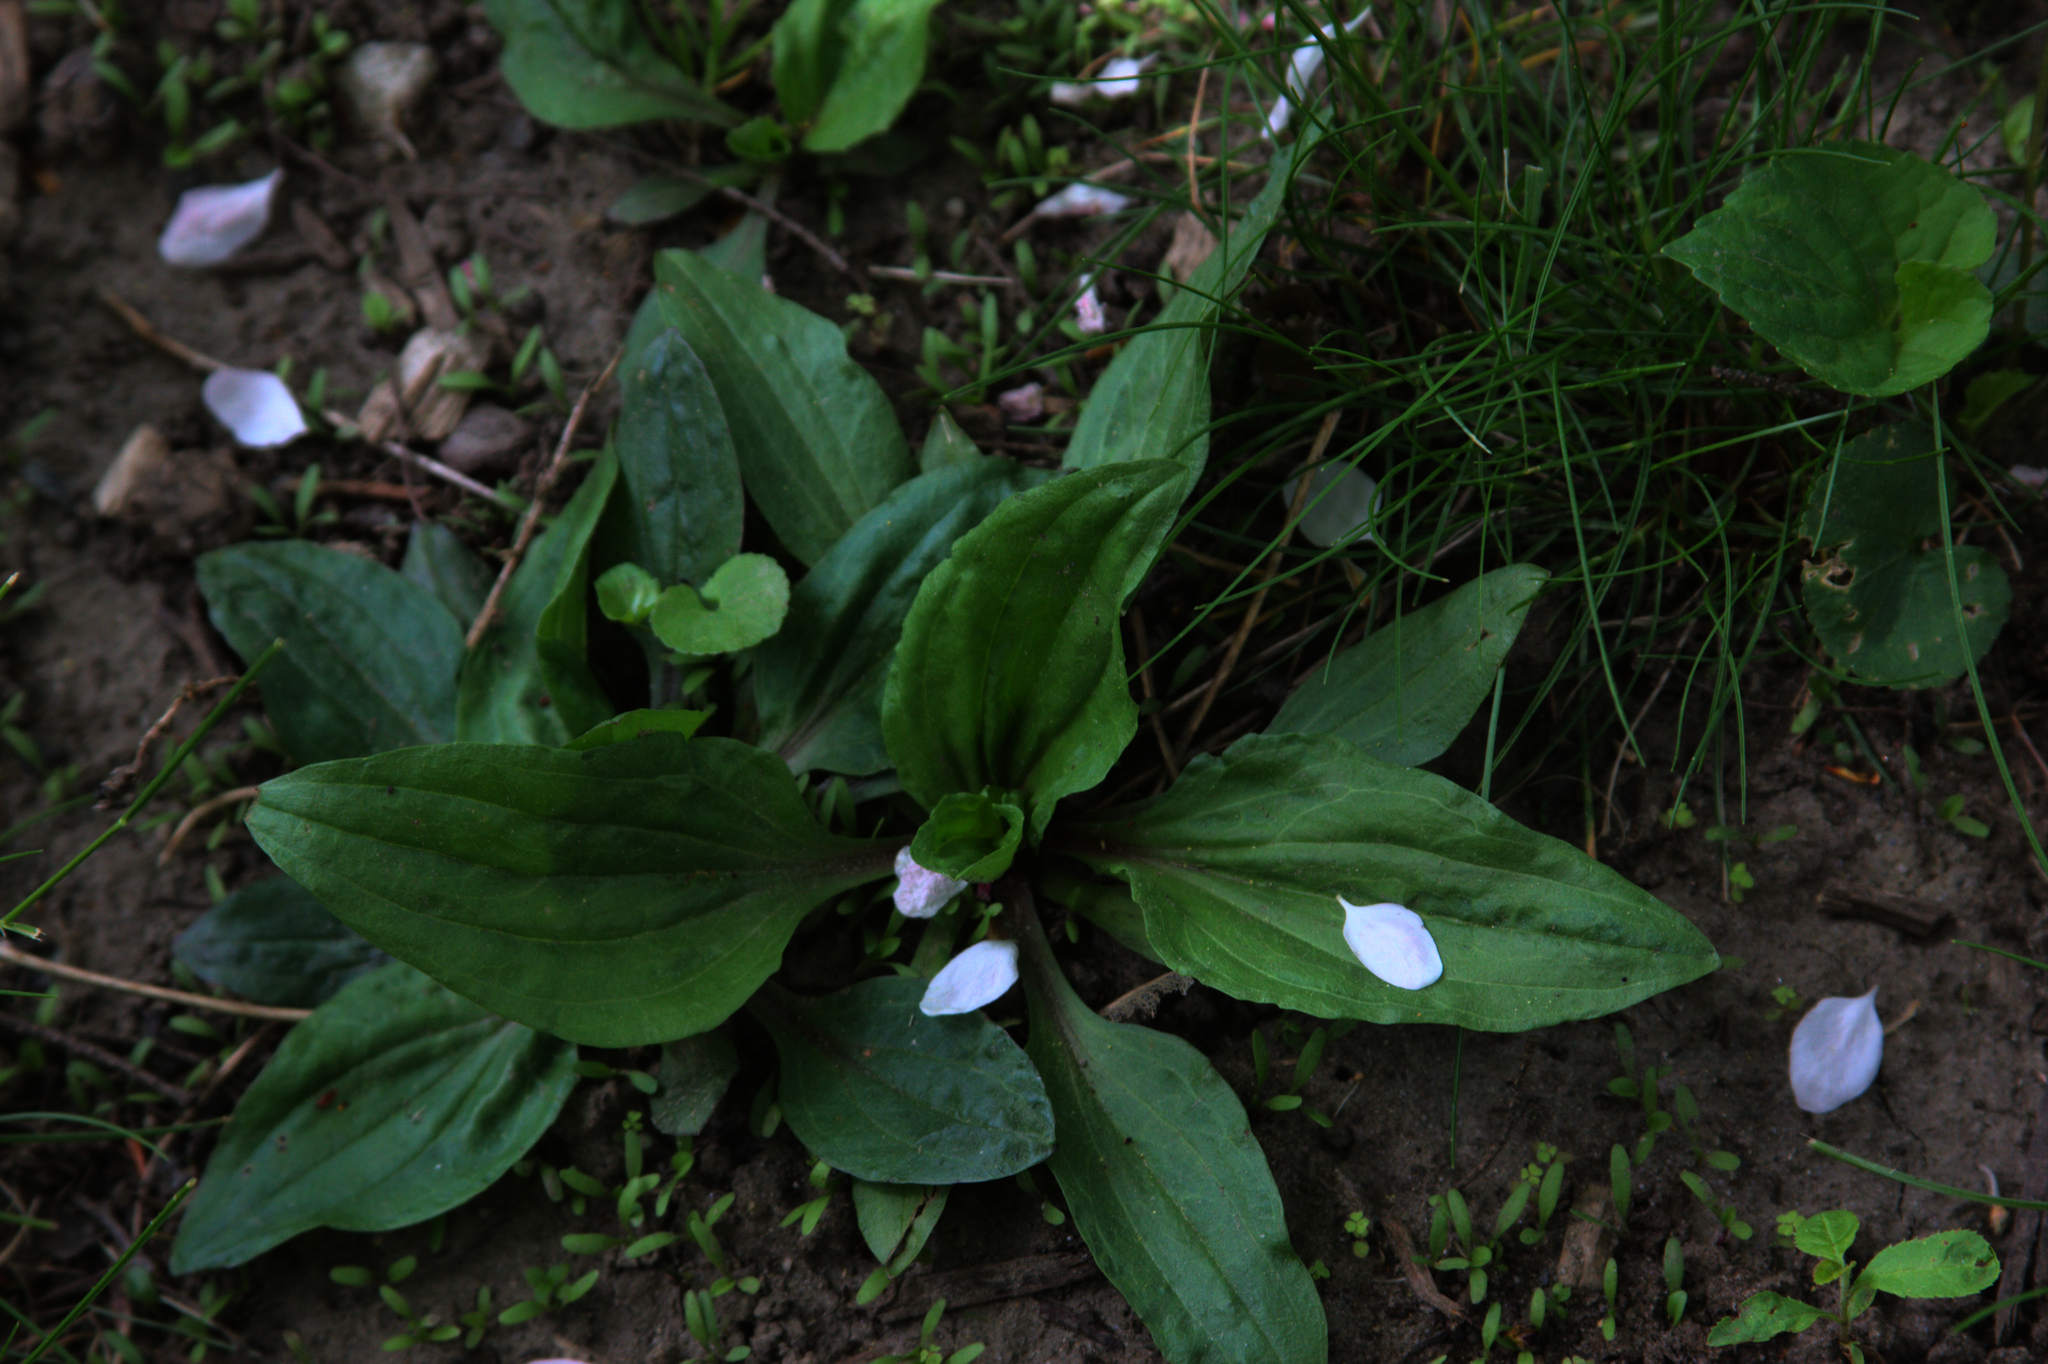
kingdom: Plantae
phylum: Tracheophyta
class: Magnoliopsida
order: Lamiales
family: Plantaginaceae
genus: Plantago
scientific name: Plantago rugelii
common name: American plantain
